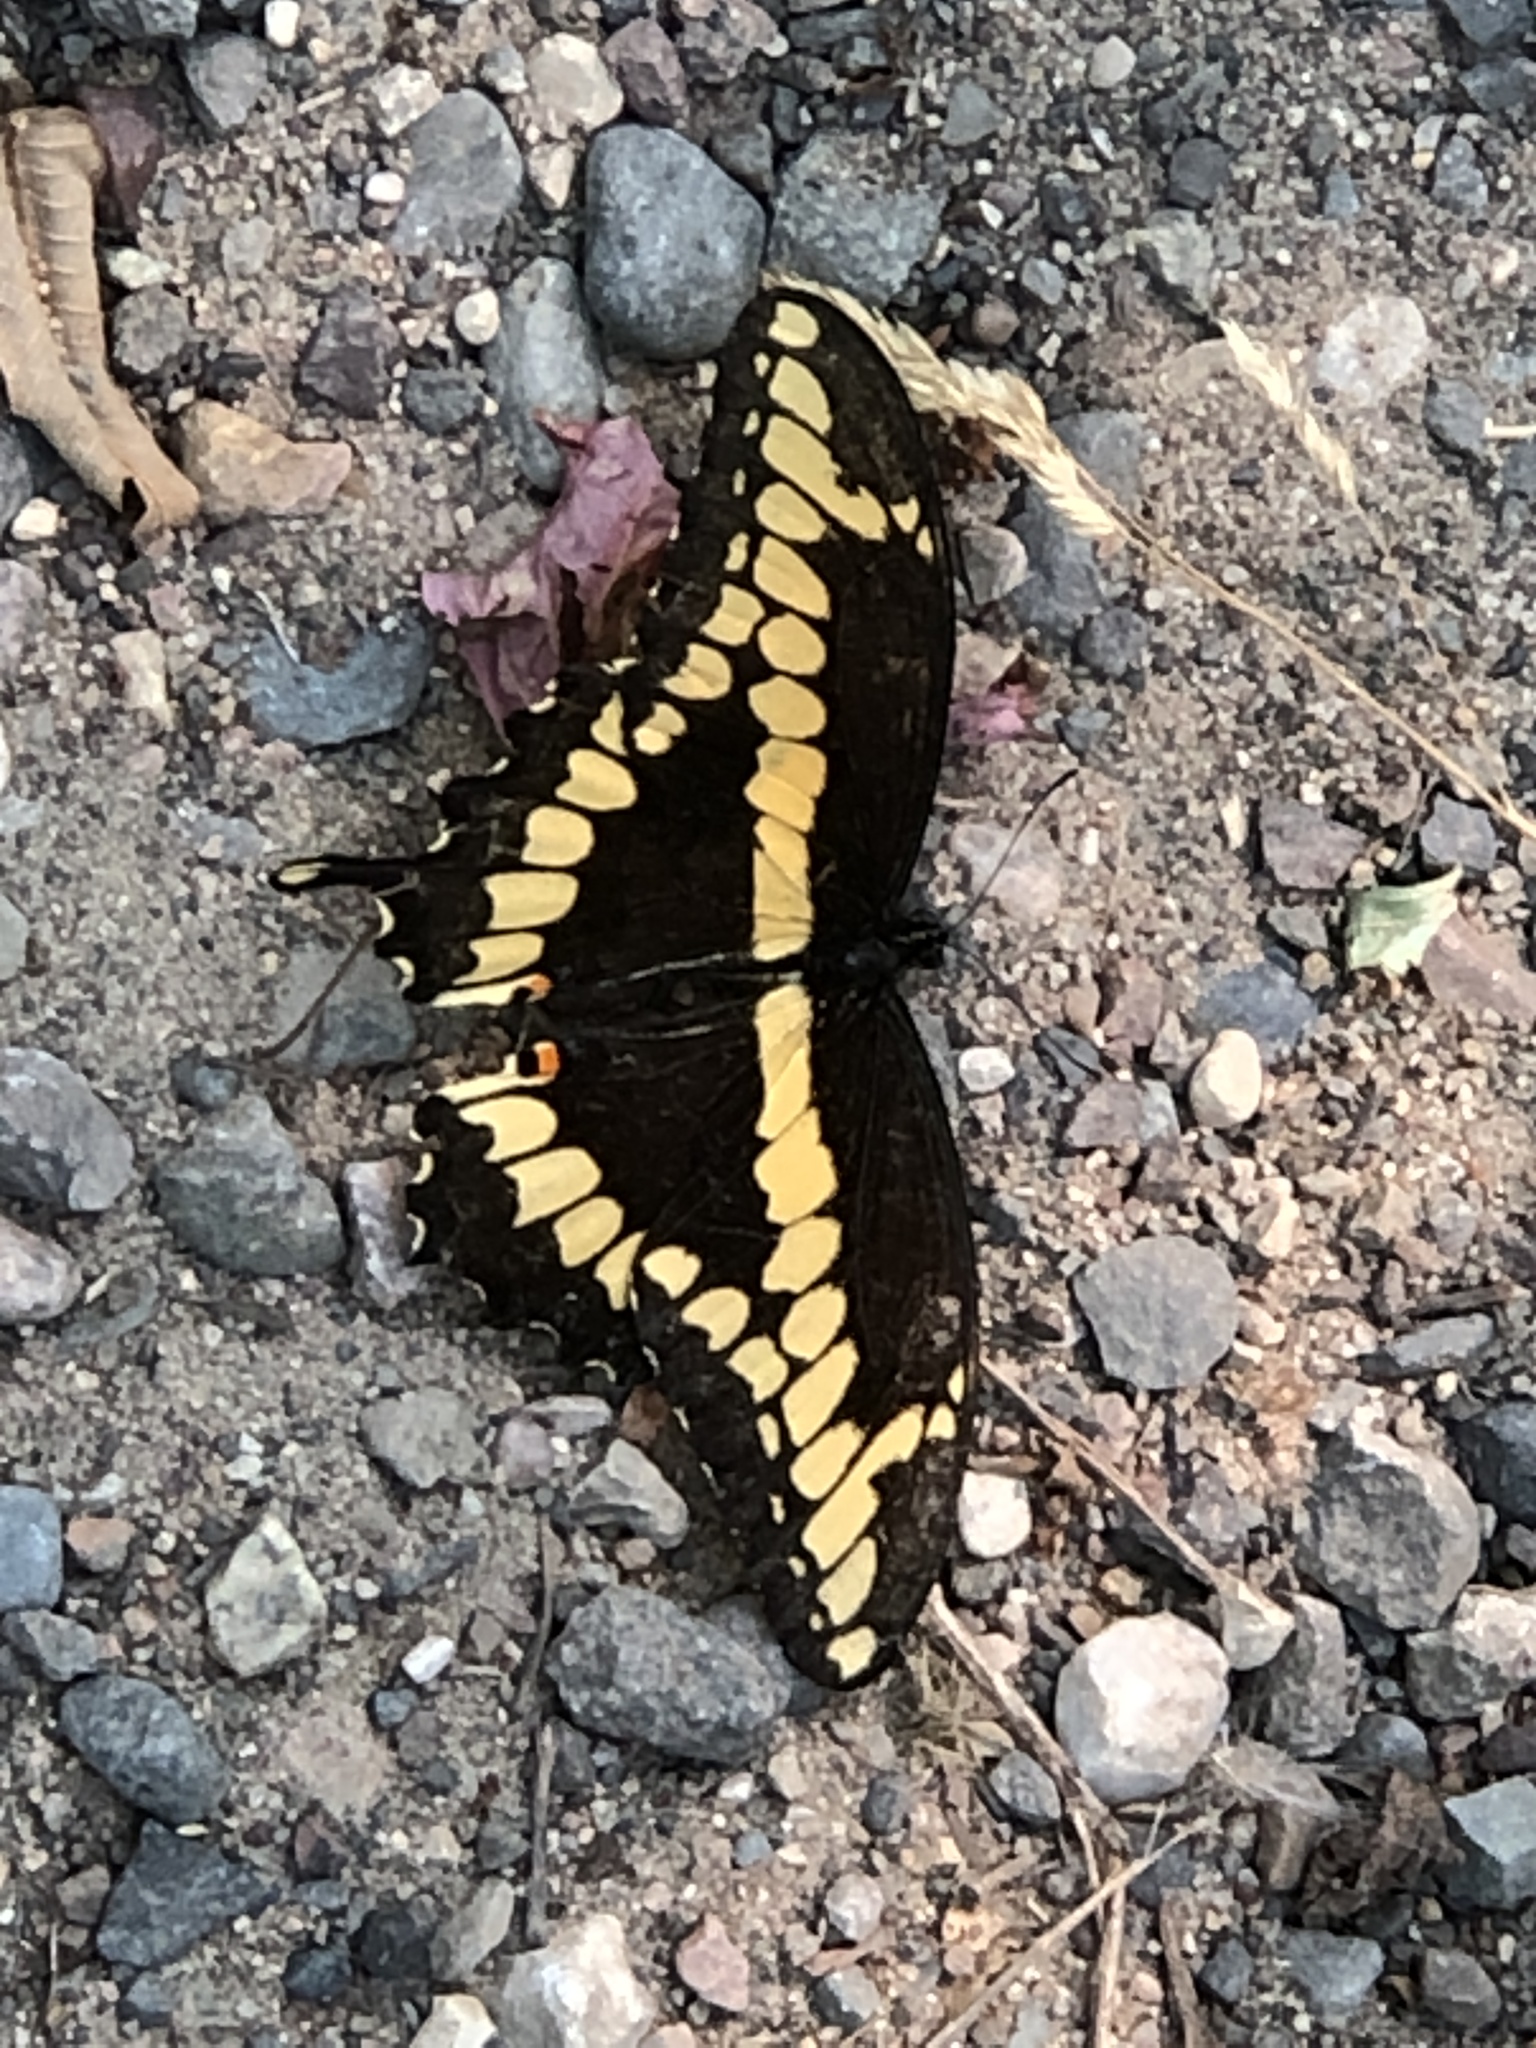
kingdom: Animalia
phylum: Arthropoda
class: Insecta
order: Lepidoptera
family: Papilionidae
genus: Papilio
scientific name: Papilio cresphontes
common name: Giant swallowtail
